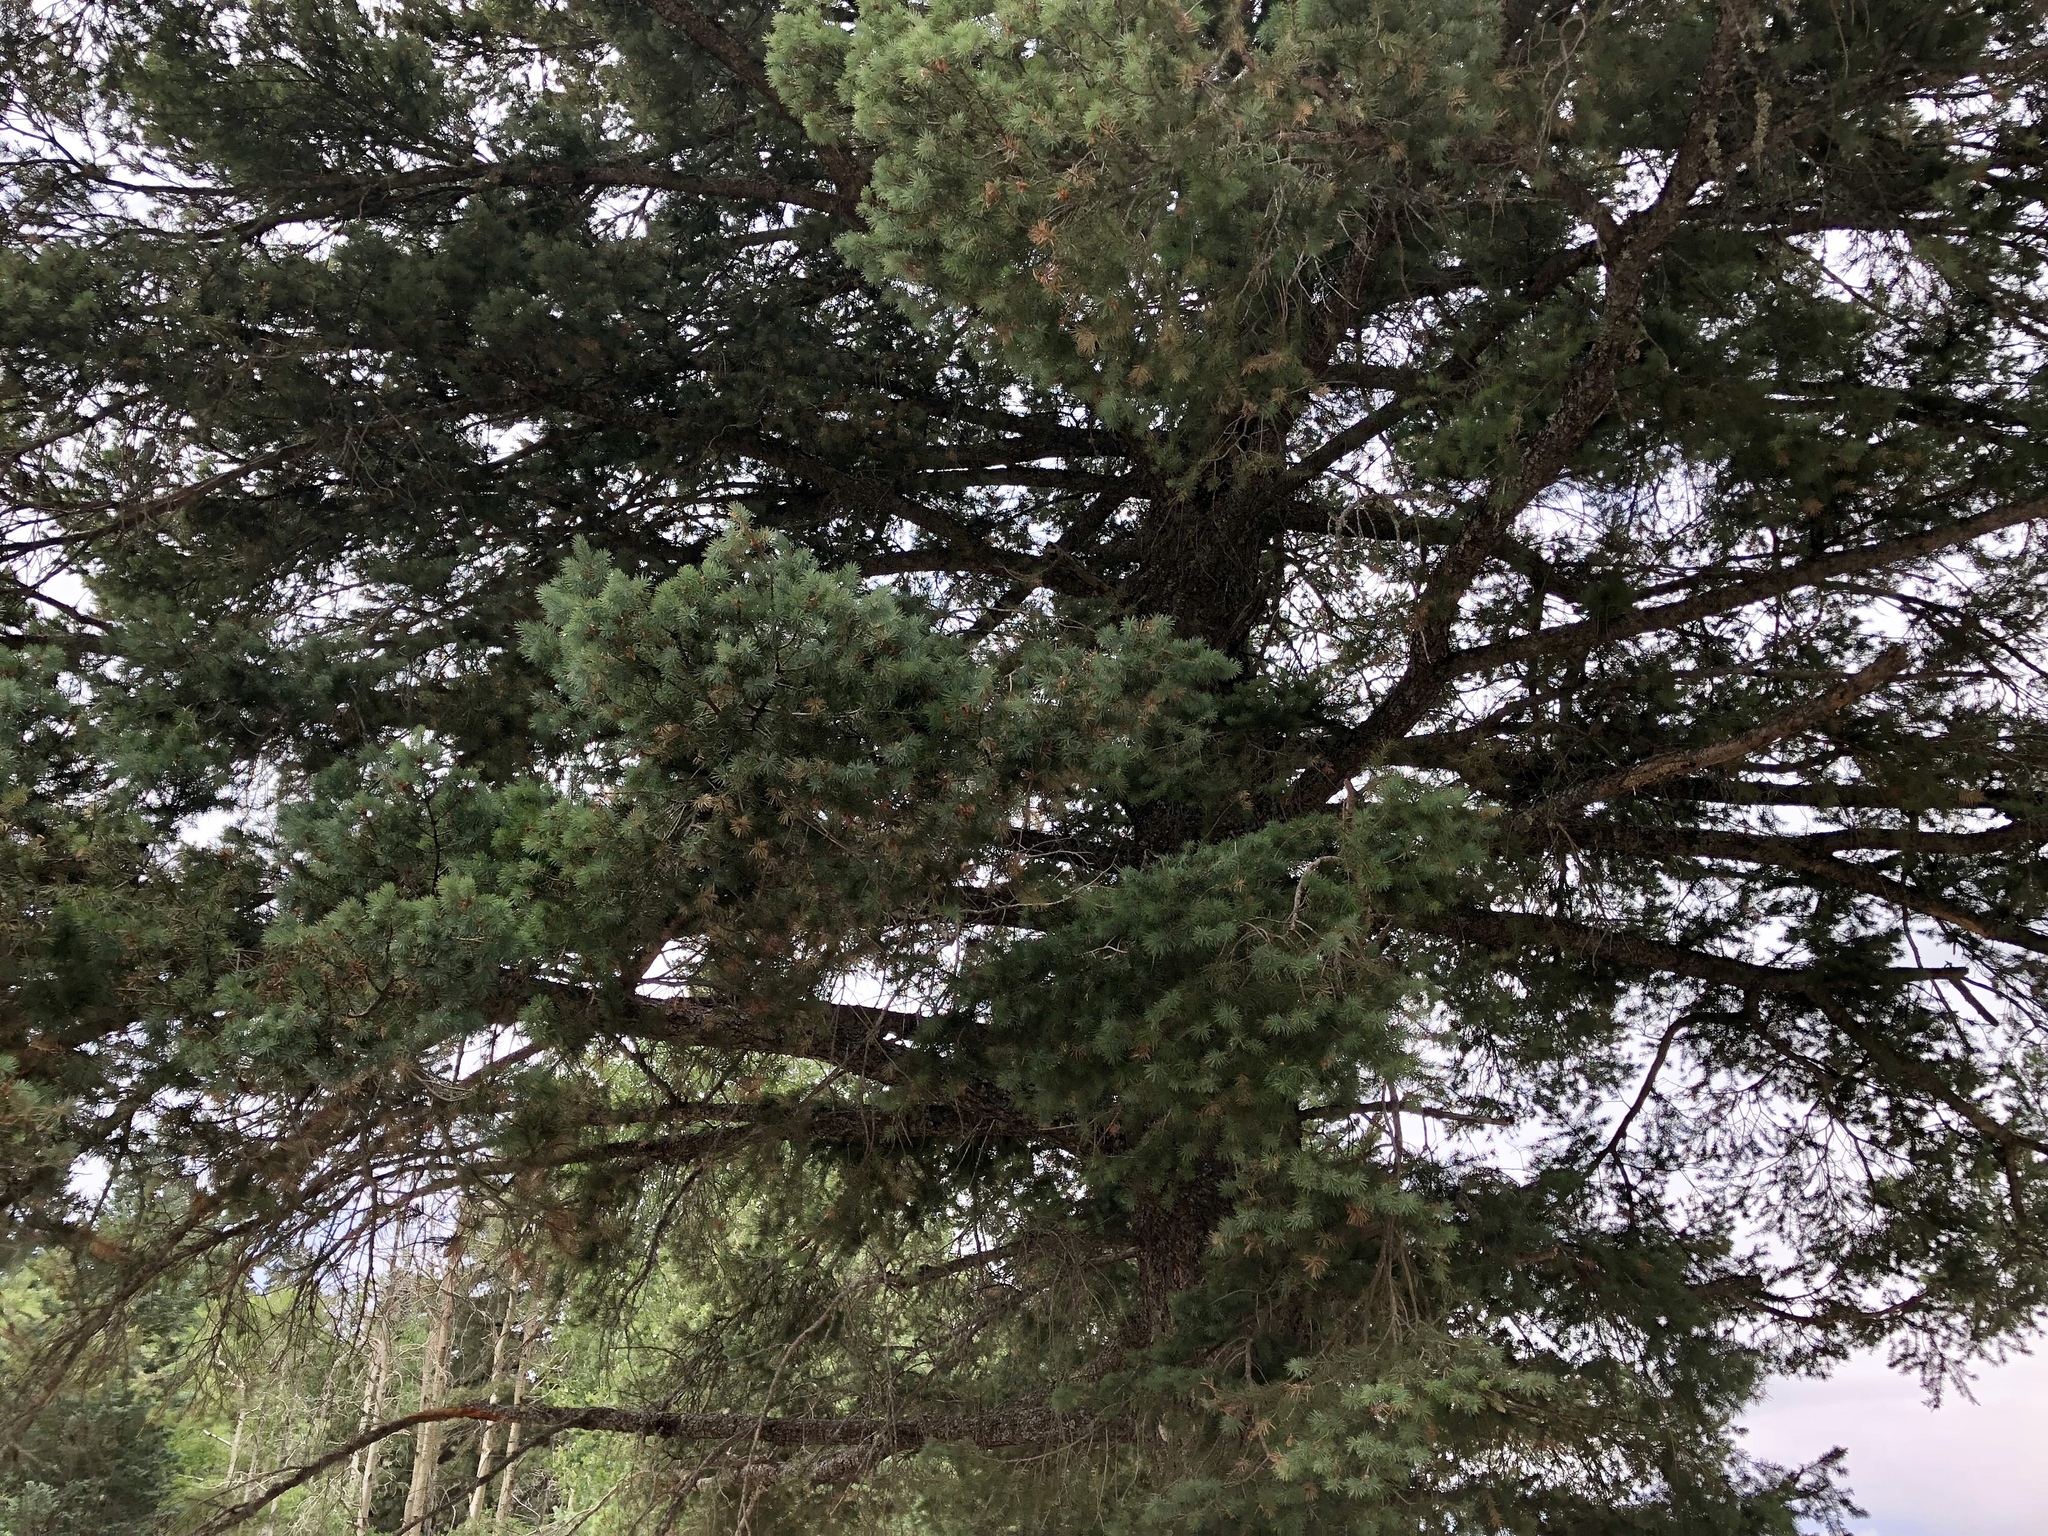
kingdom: Plantae
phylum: Tracheophyta
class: Pinopsida
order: Pinales
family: Pinaceae
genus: Pseudotsuga
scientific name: Pseudotsuga menziesii
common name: Douglas fir
